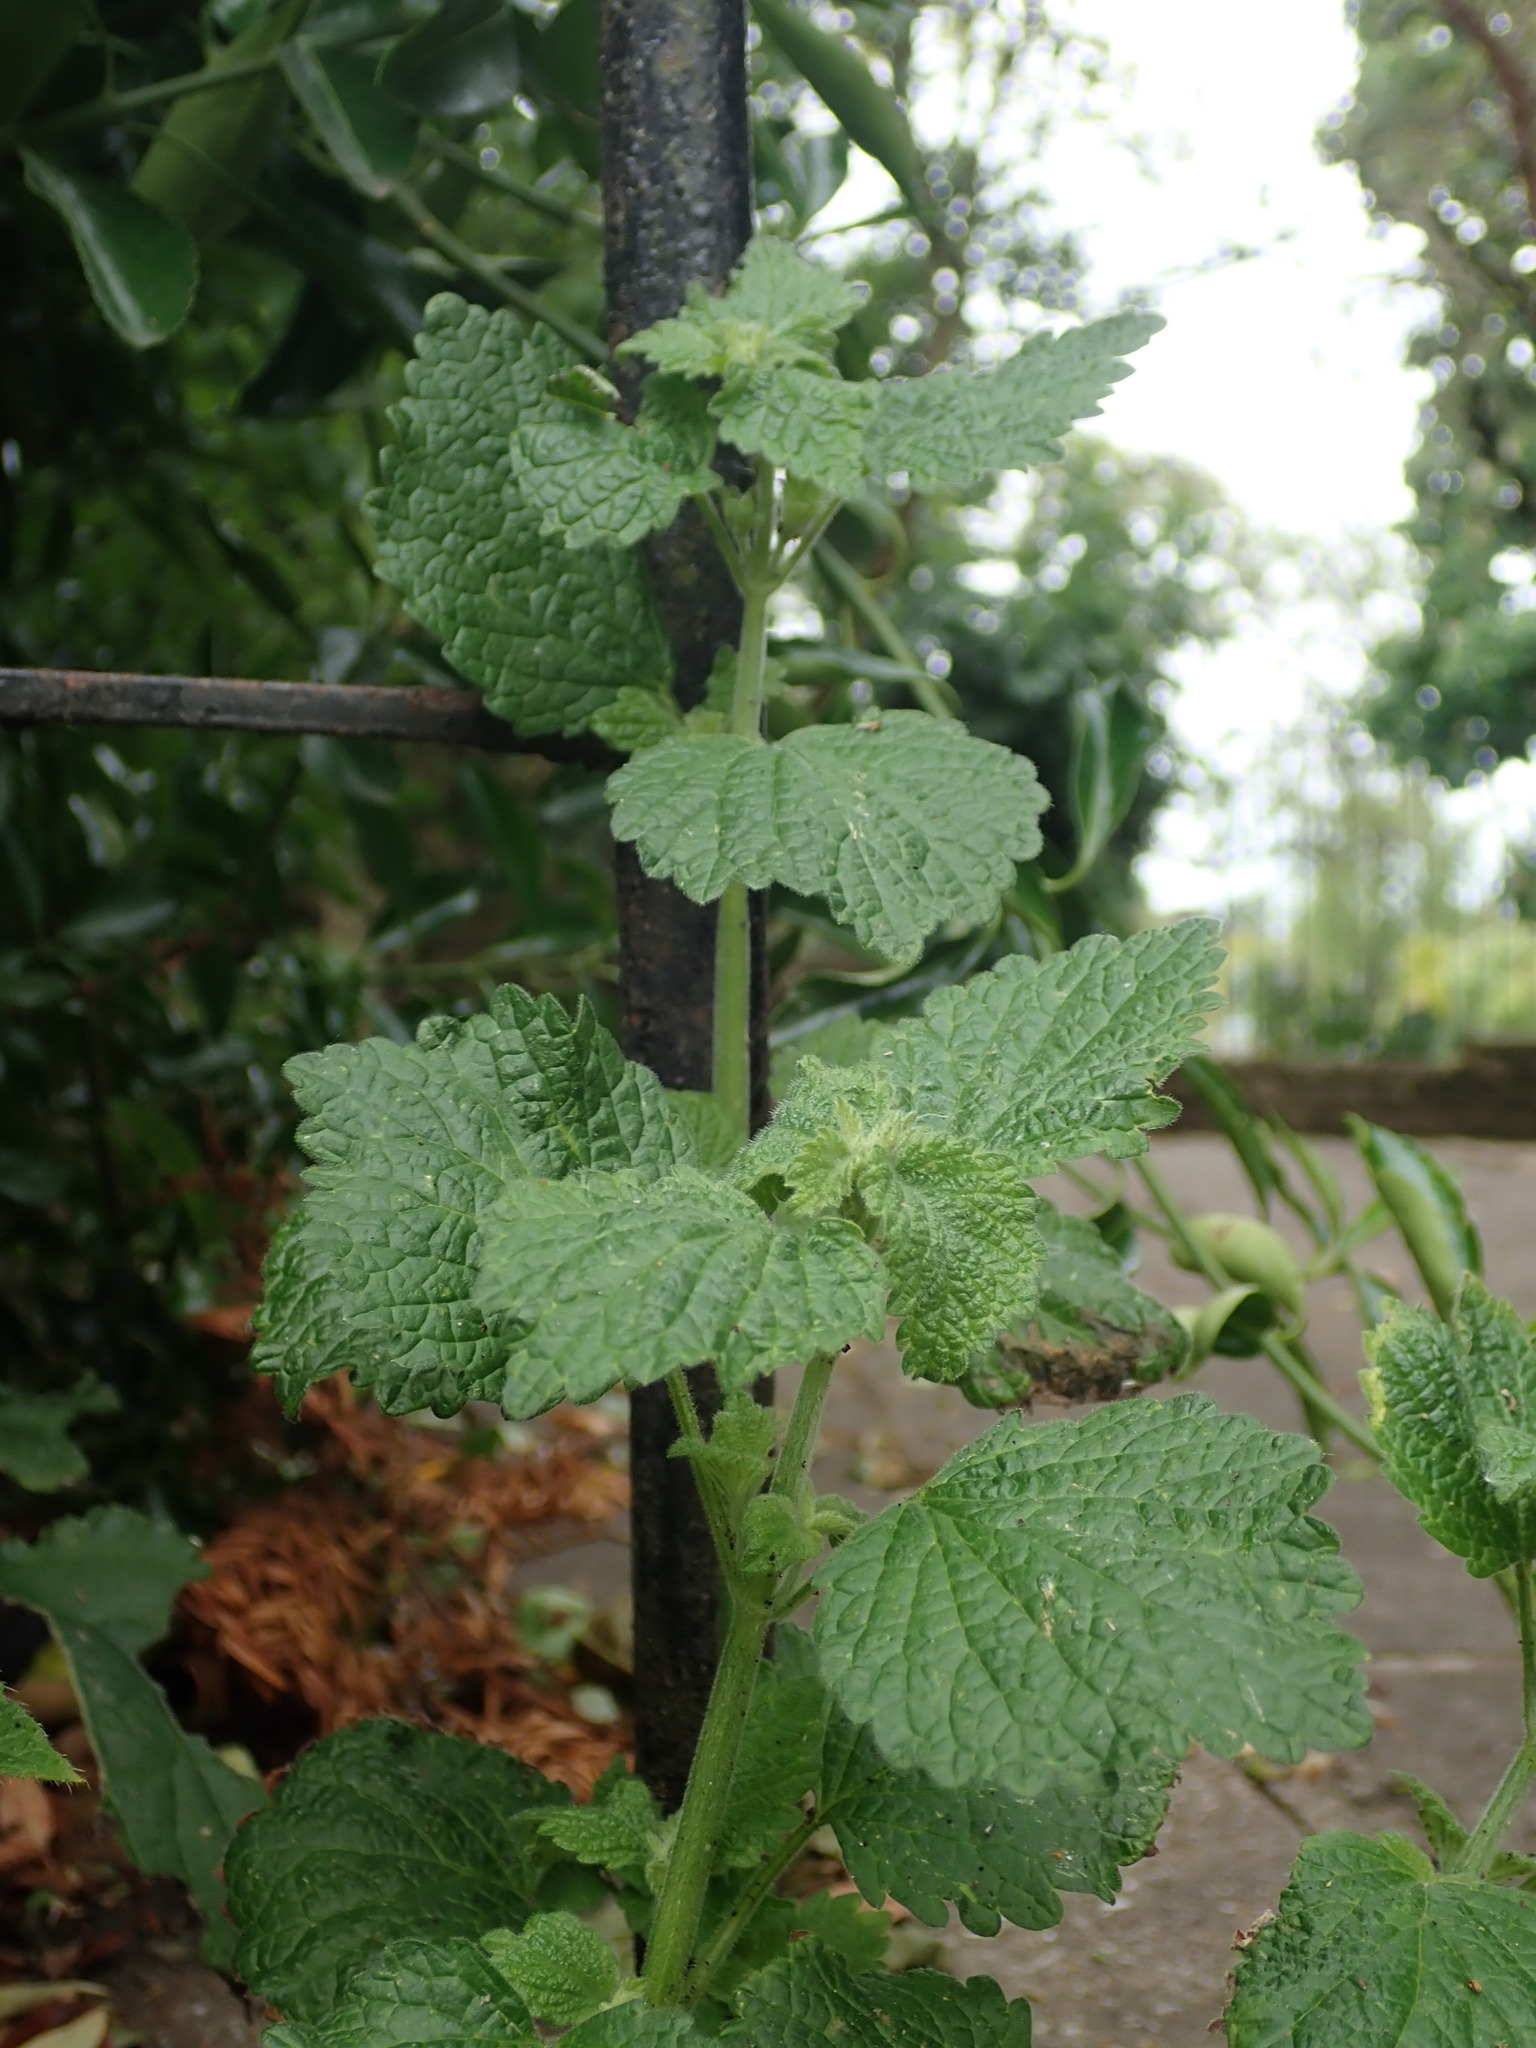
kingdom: Plantae
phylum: Tracheophyta
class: Magnoliopsida
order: Lamiales
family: Lamiaceae
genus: Ballota
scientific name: Ballota nigra
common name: Black horehound
